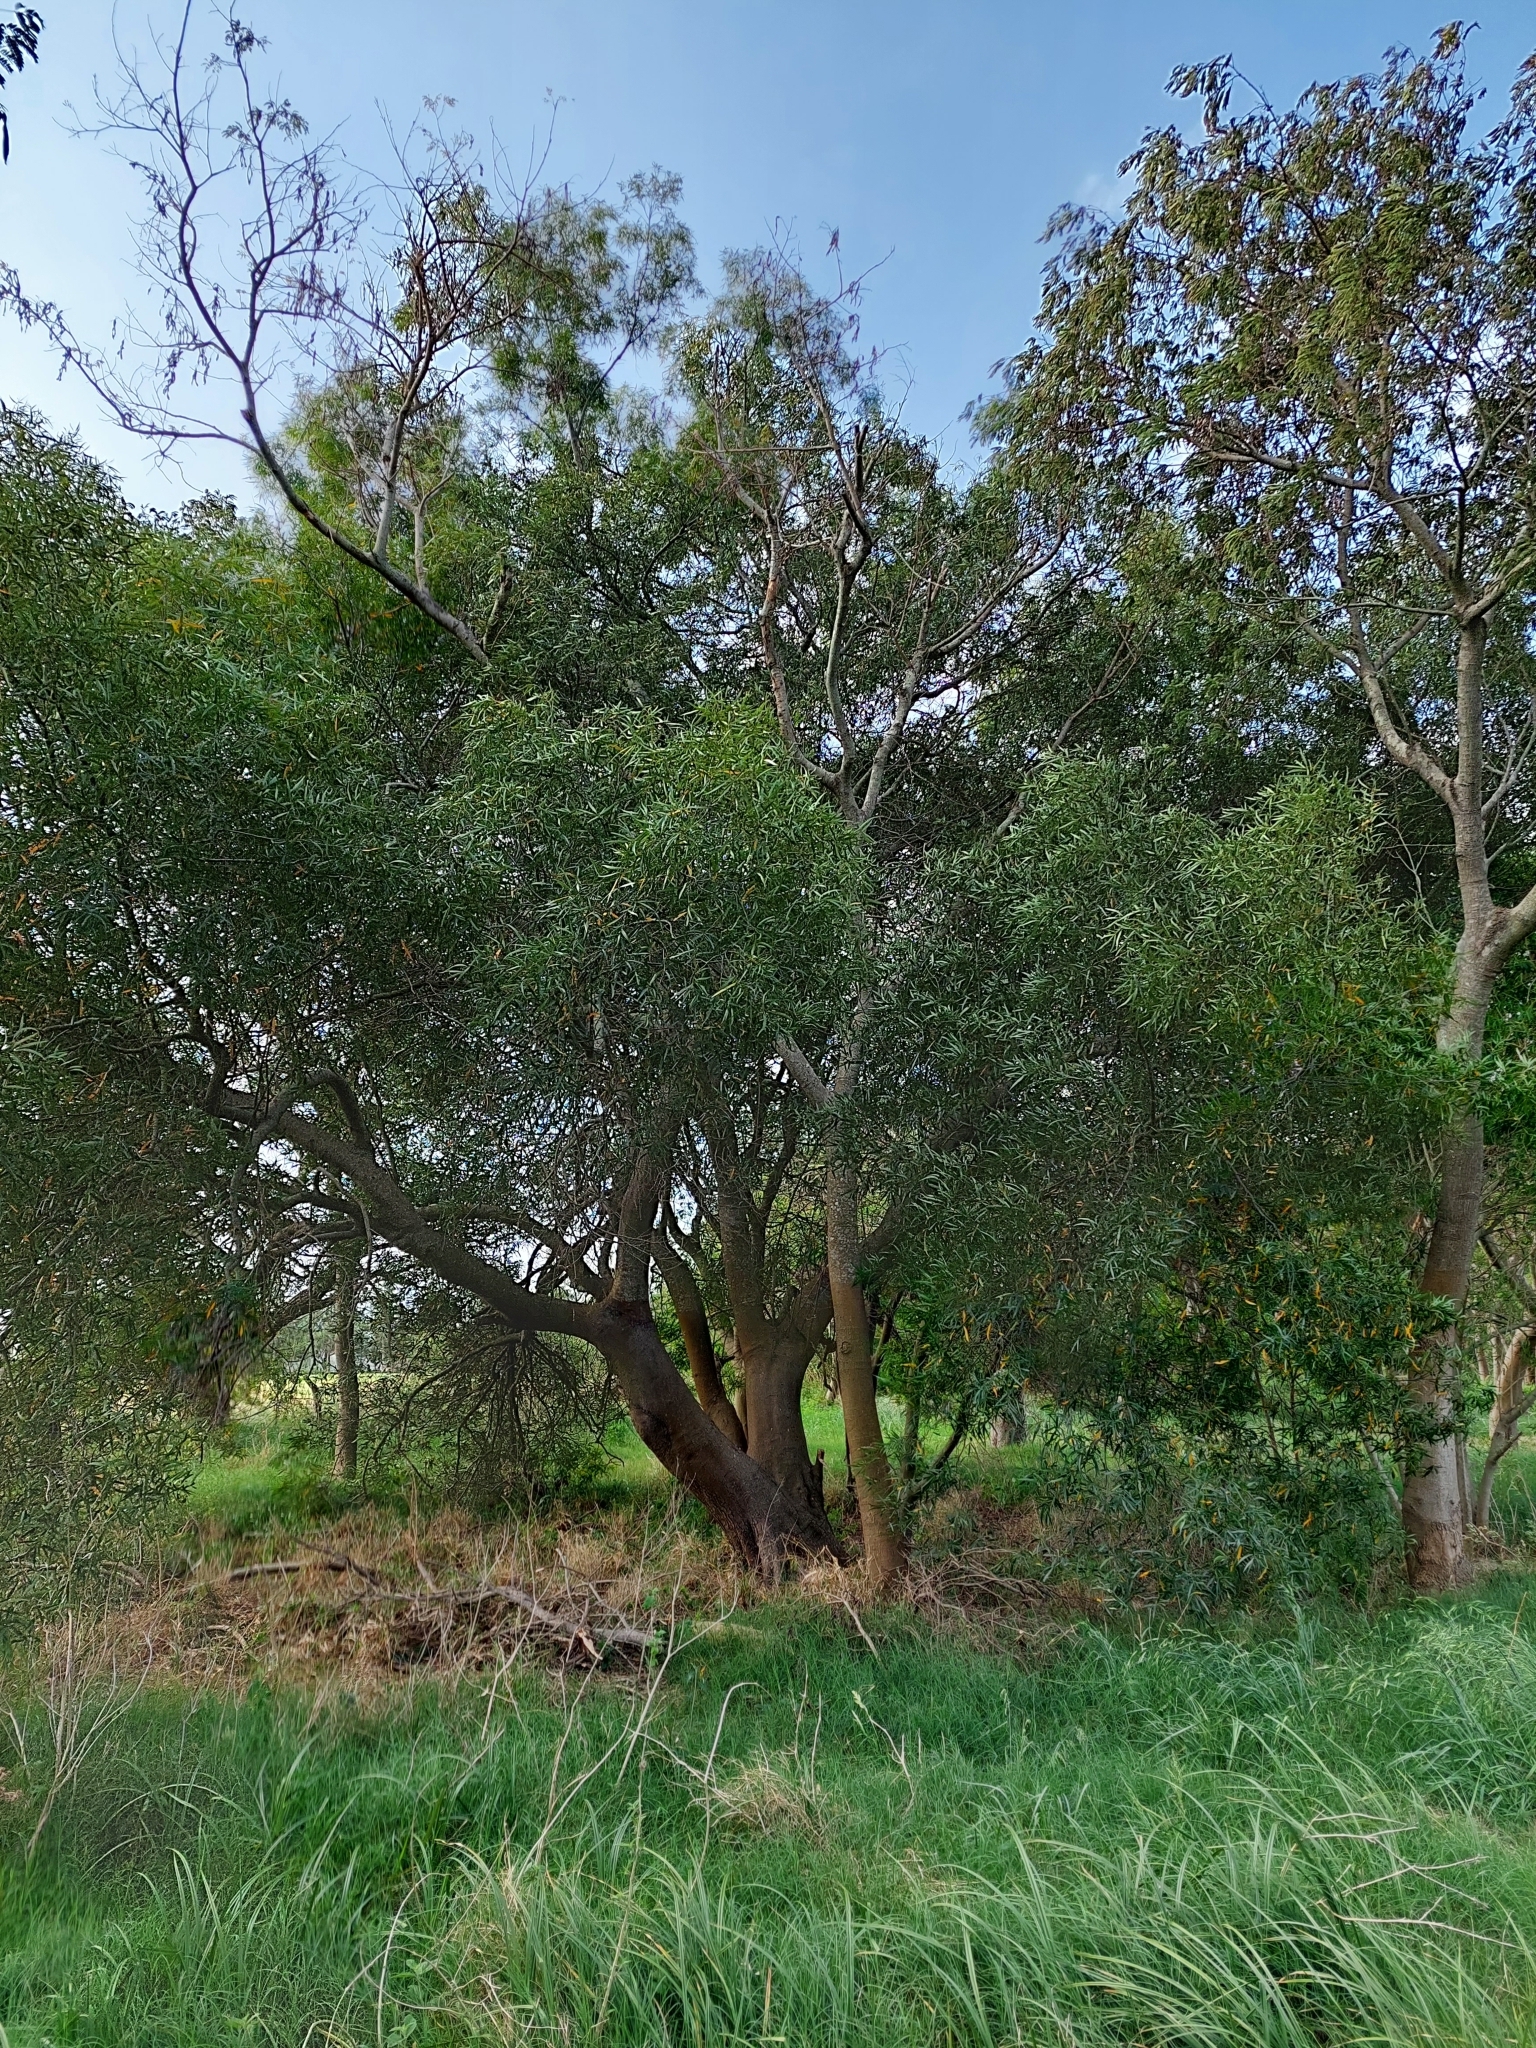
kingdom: Plantae
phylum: Tracheophyta
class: Magnoliopsida
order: Laurales
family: Lauraceae
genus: Nectandra
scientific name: Nectandra angustifolia
